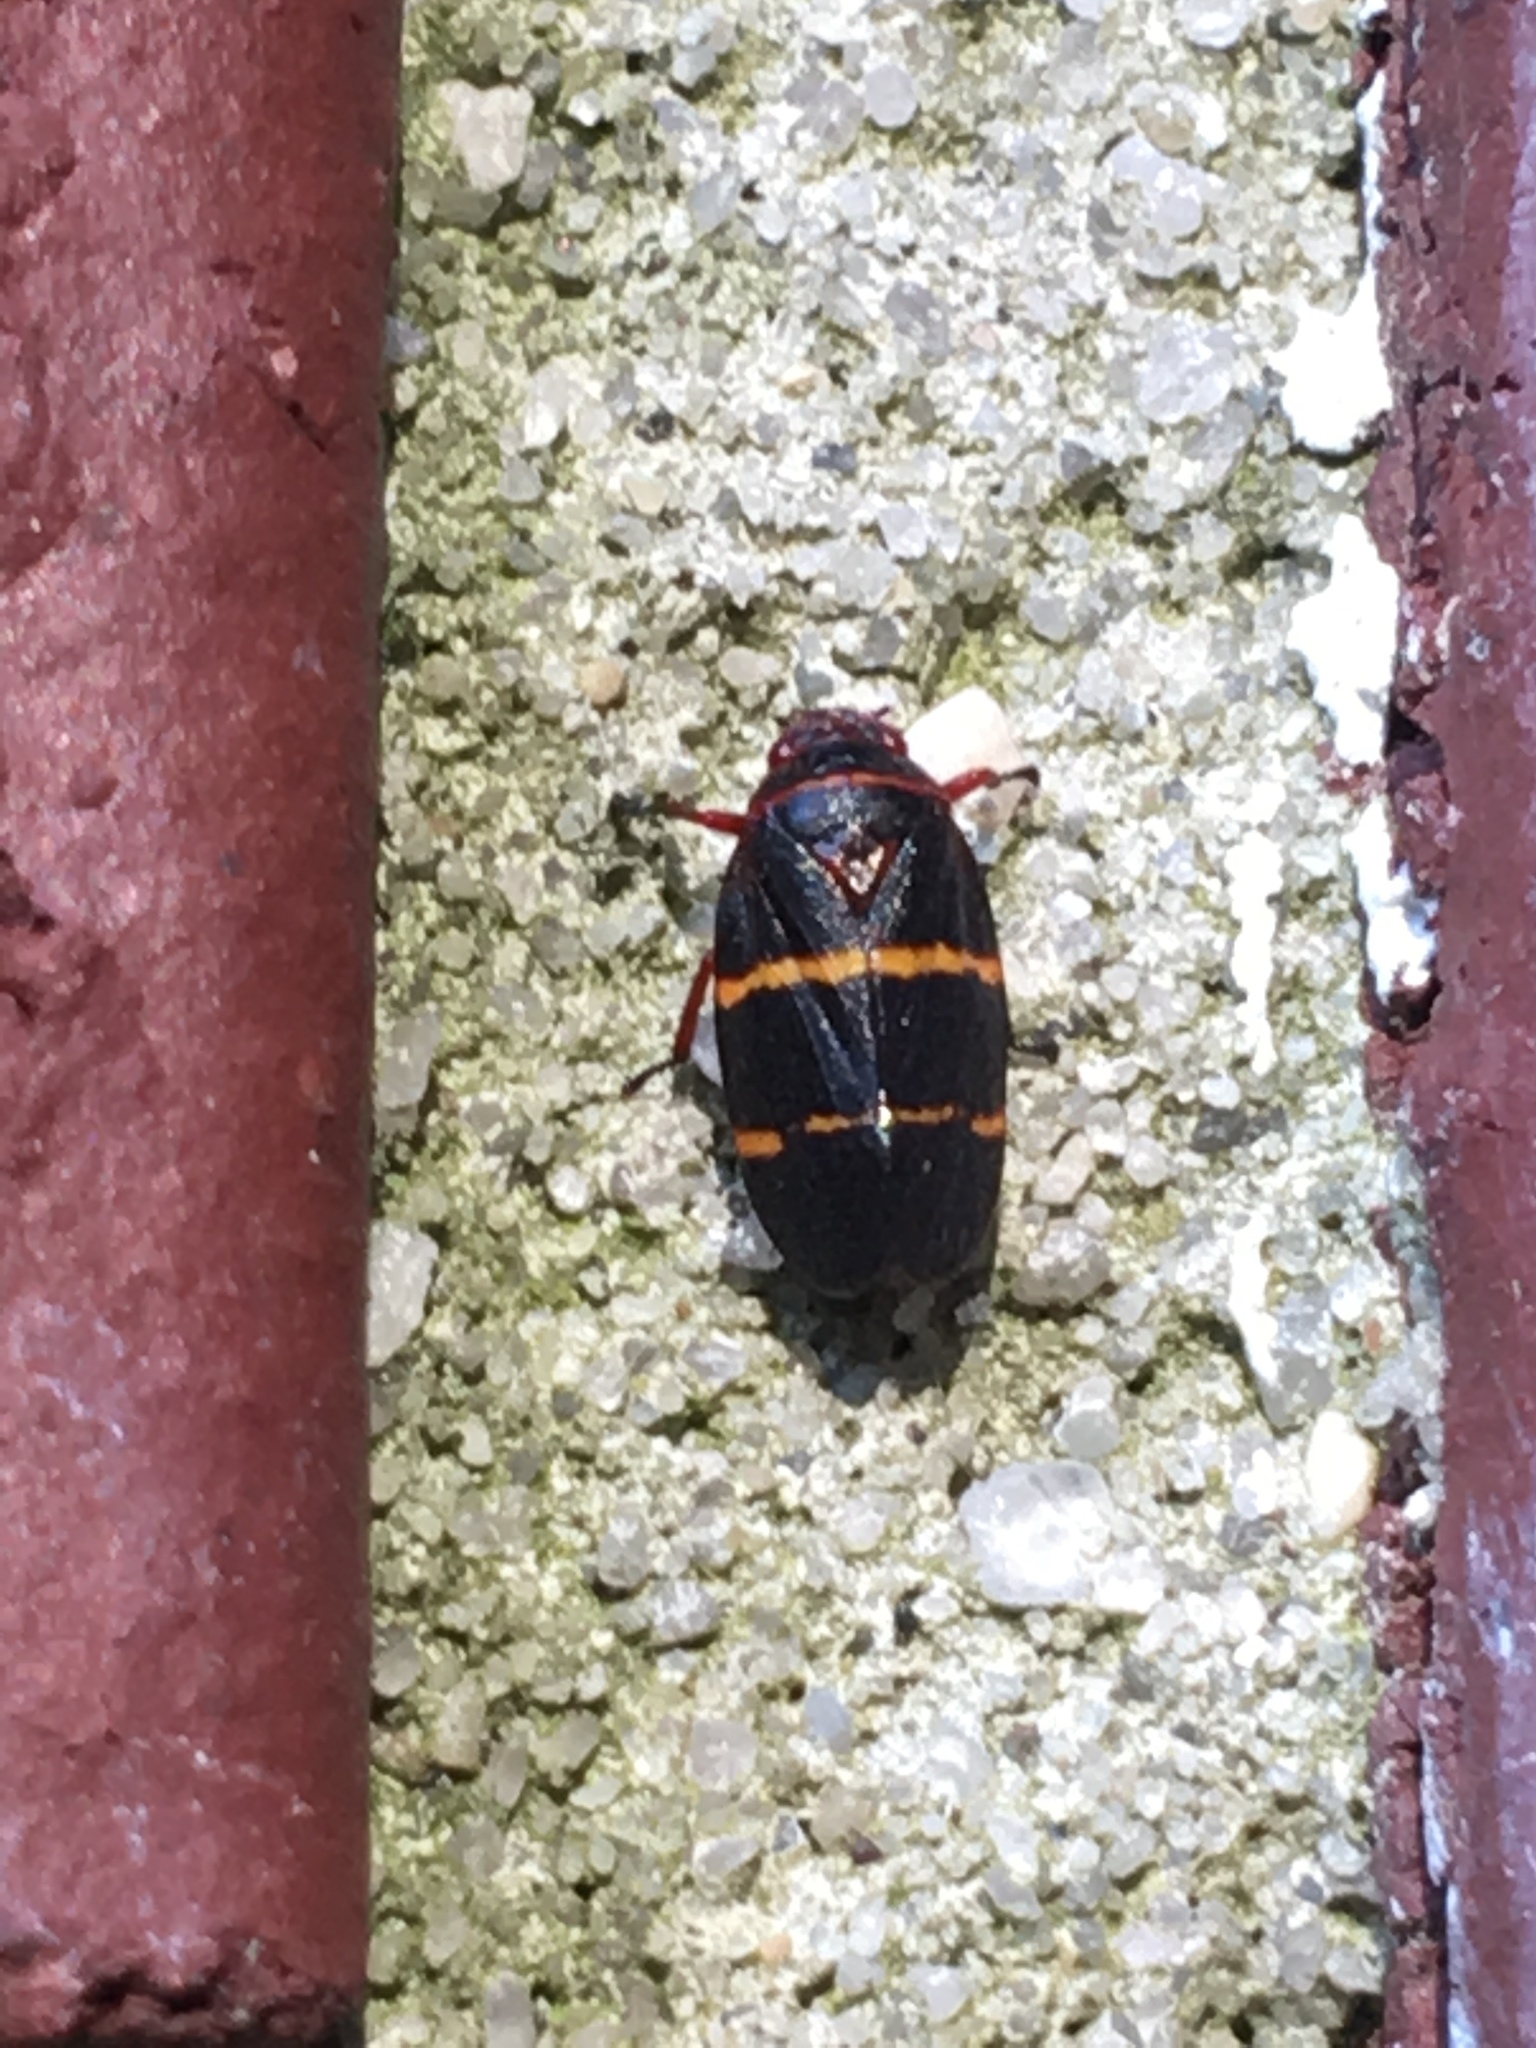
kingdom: Animalia
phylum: Arthropoda
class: Insecta
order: Hemiptera
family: Cercopidae
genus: Prosapia
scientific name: Prosapia bicincta
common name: Twolined spittlebug
